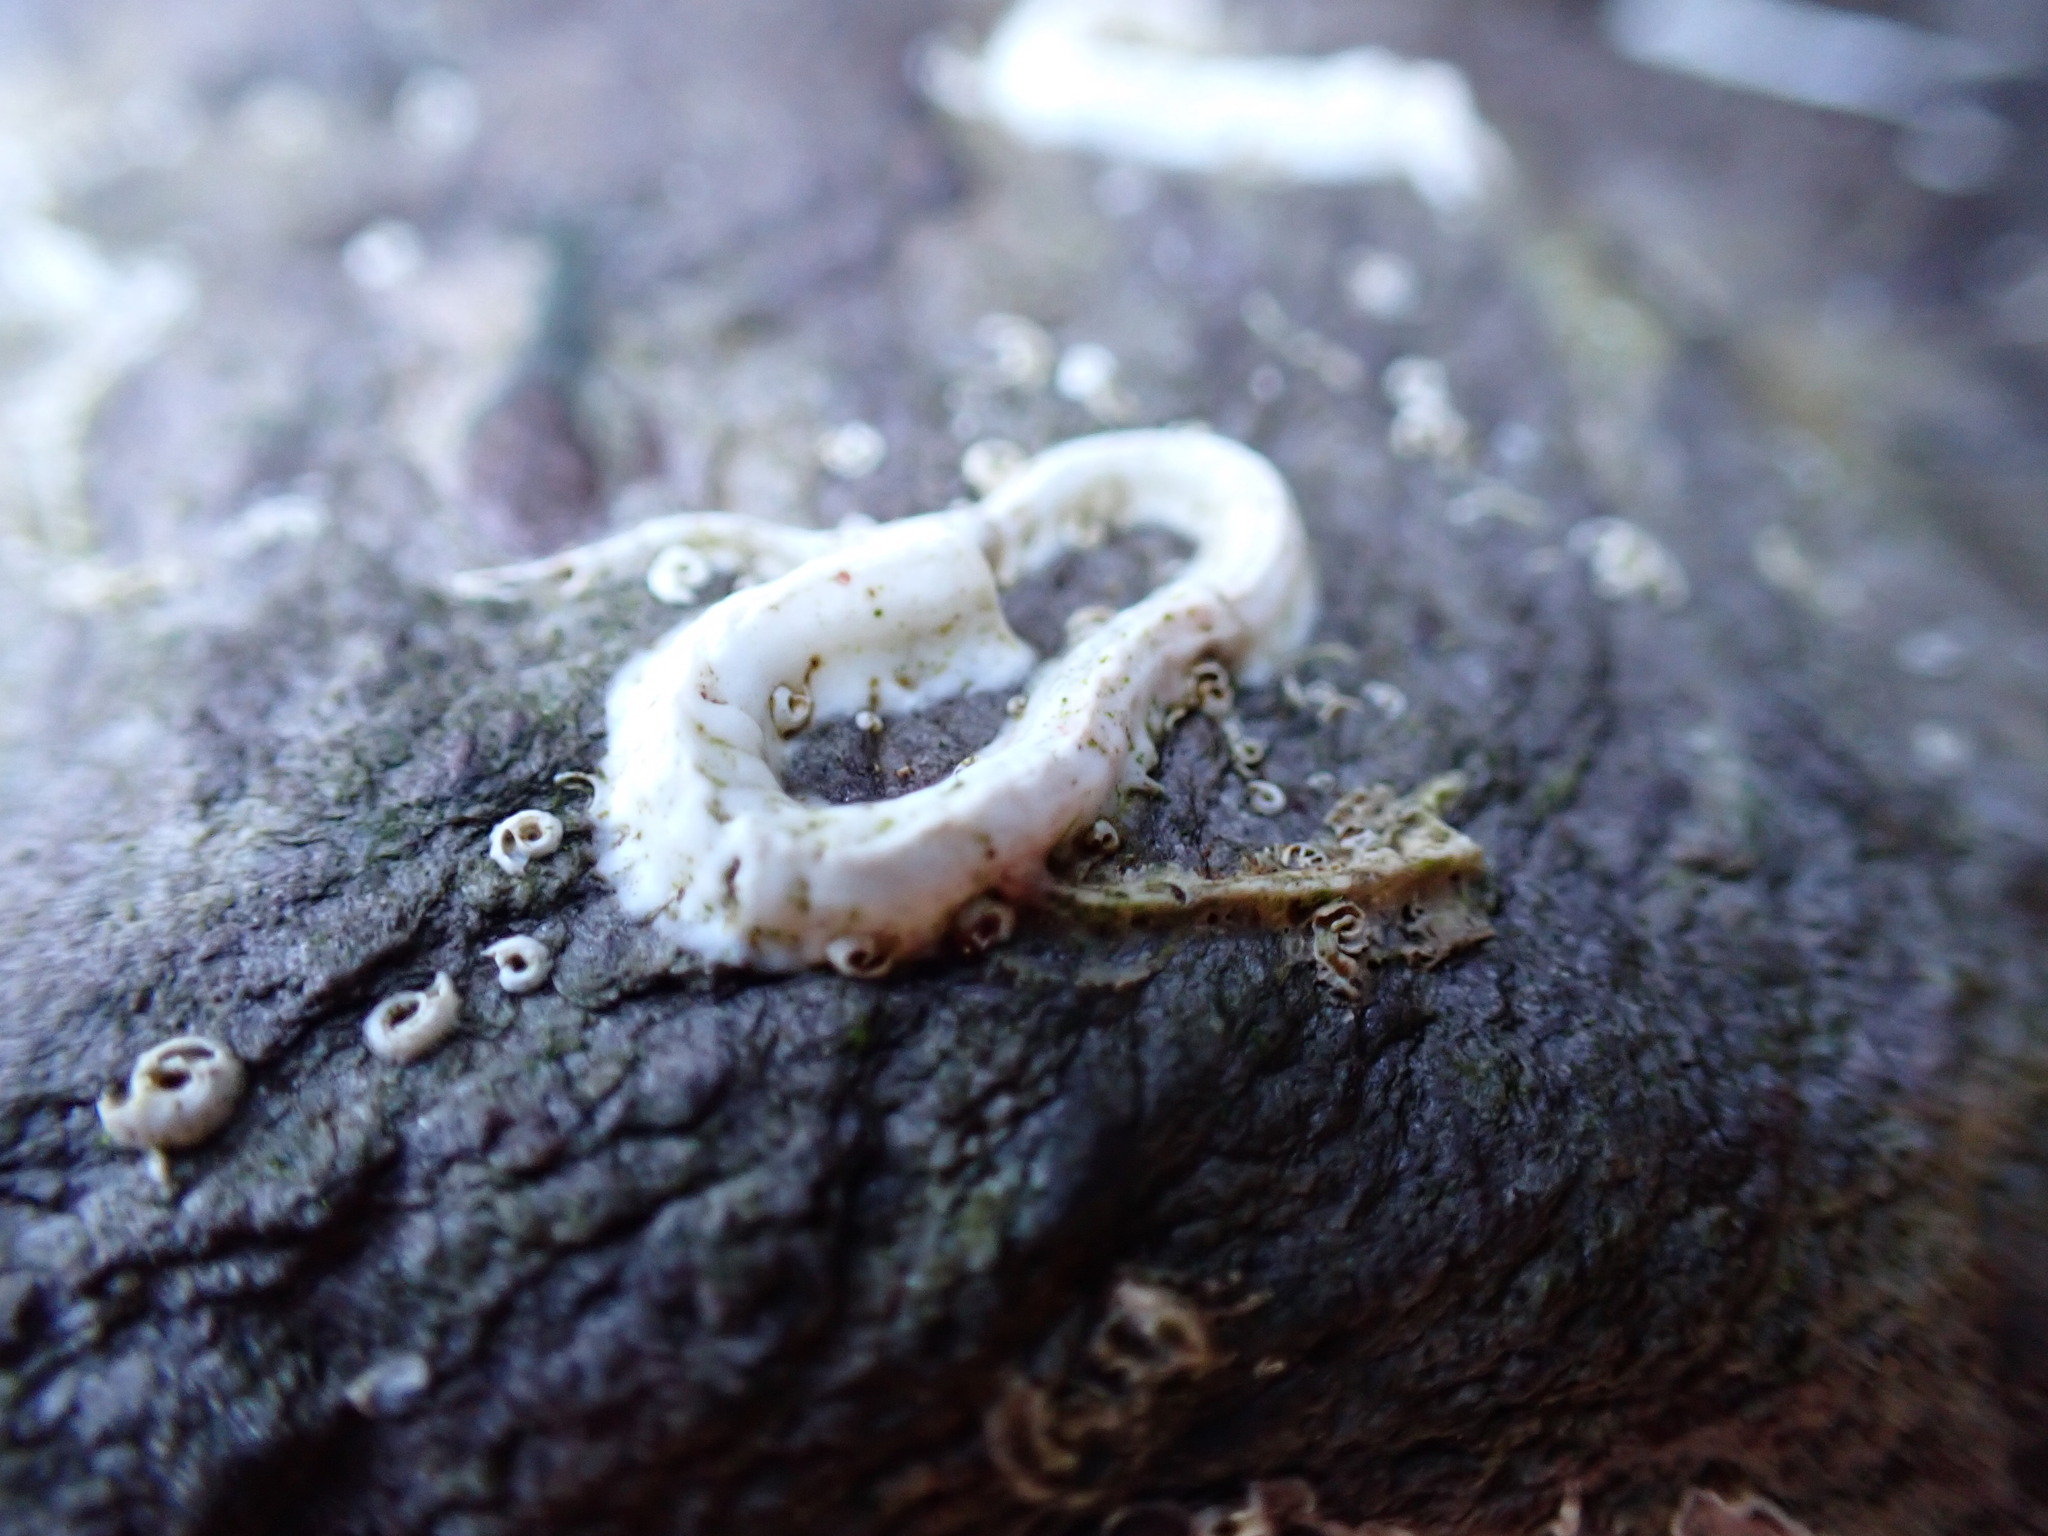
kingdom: Animalia
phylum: Annelida
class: Polychaeta
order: Sabellida
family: Serpulidae
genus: Spirobranchus
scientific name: Spirobranchus lamarcki
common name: Keelworm
